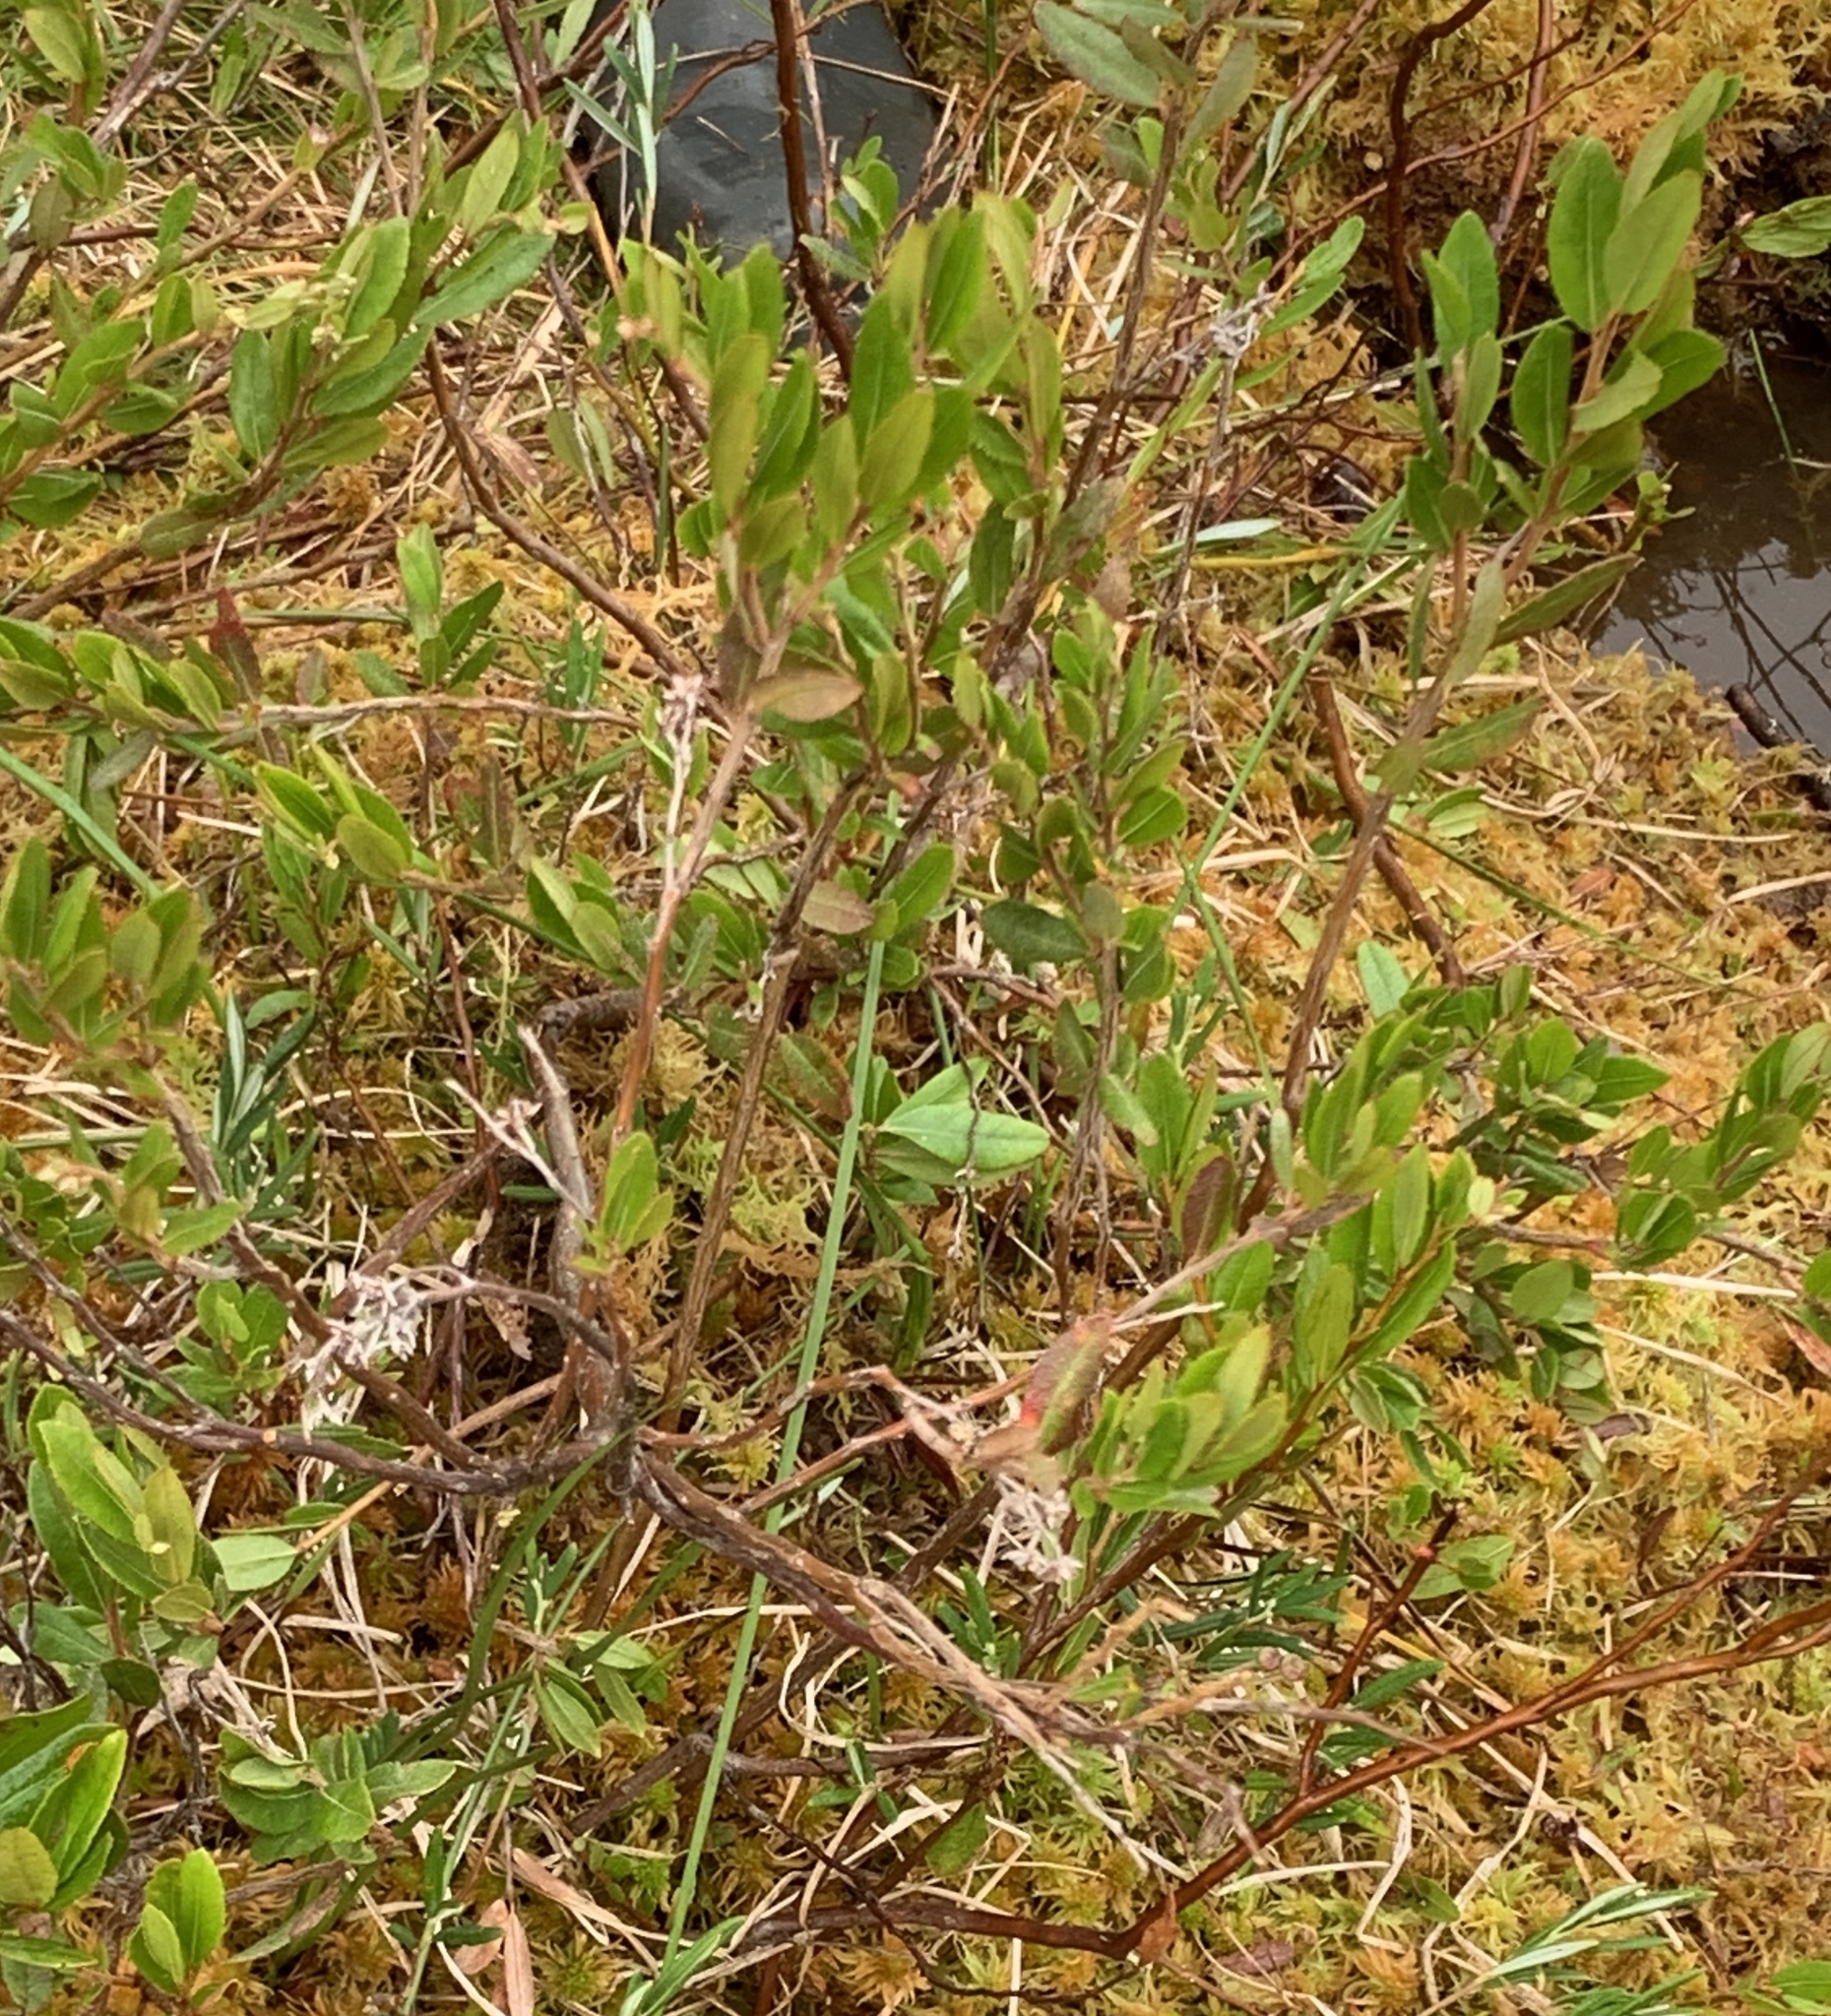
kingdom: Plantae
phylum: Tracheophyta
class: Magnoliopsida
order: Ericales
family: Ericaceae
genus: Chamaedaphne
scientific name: Chamaedaphne calyculata
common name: Leatherleaf
